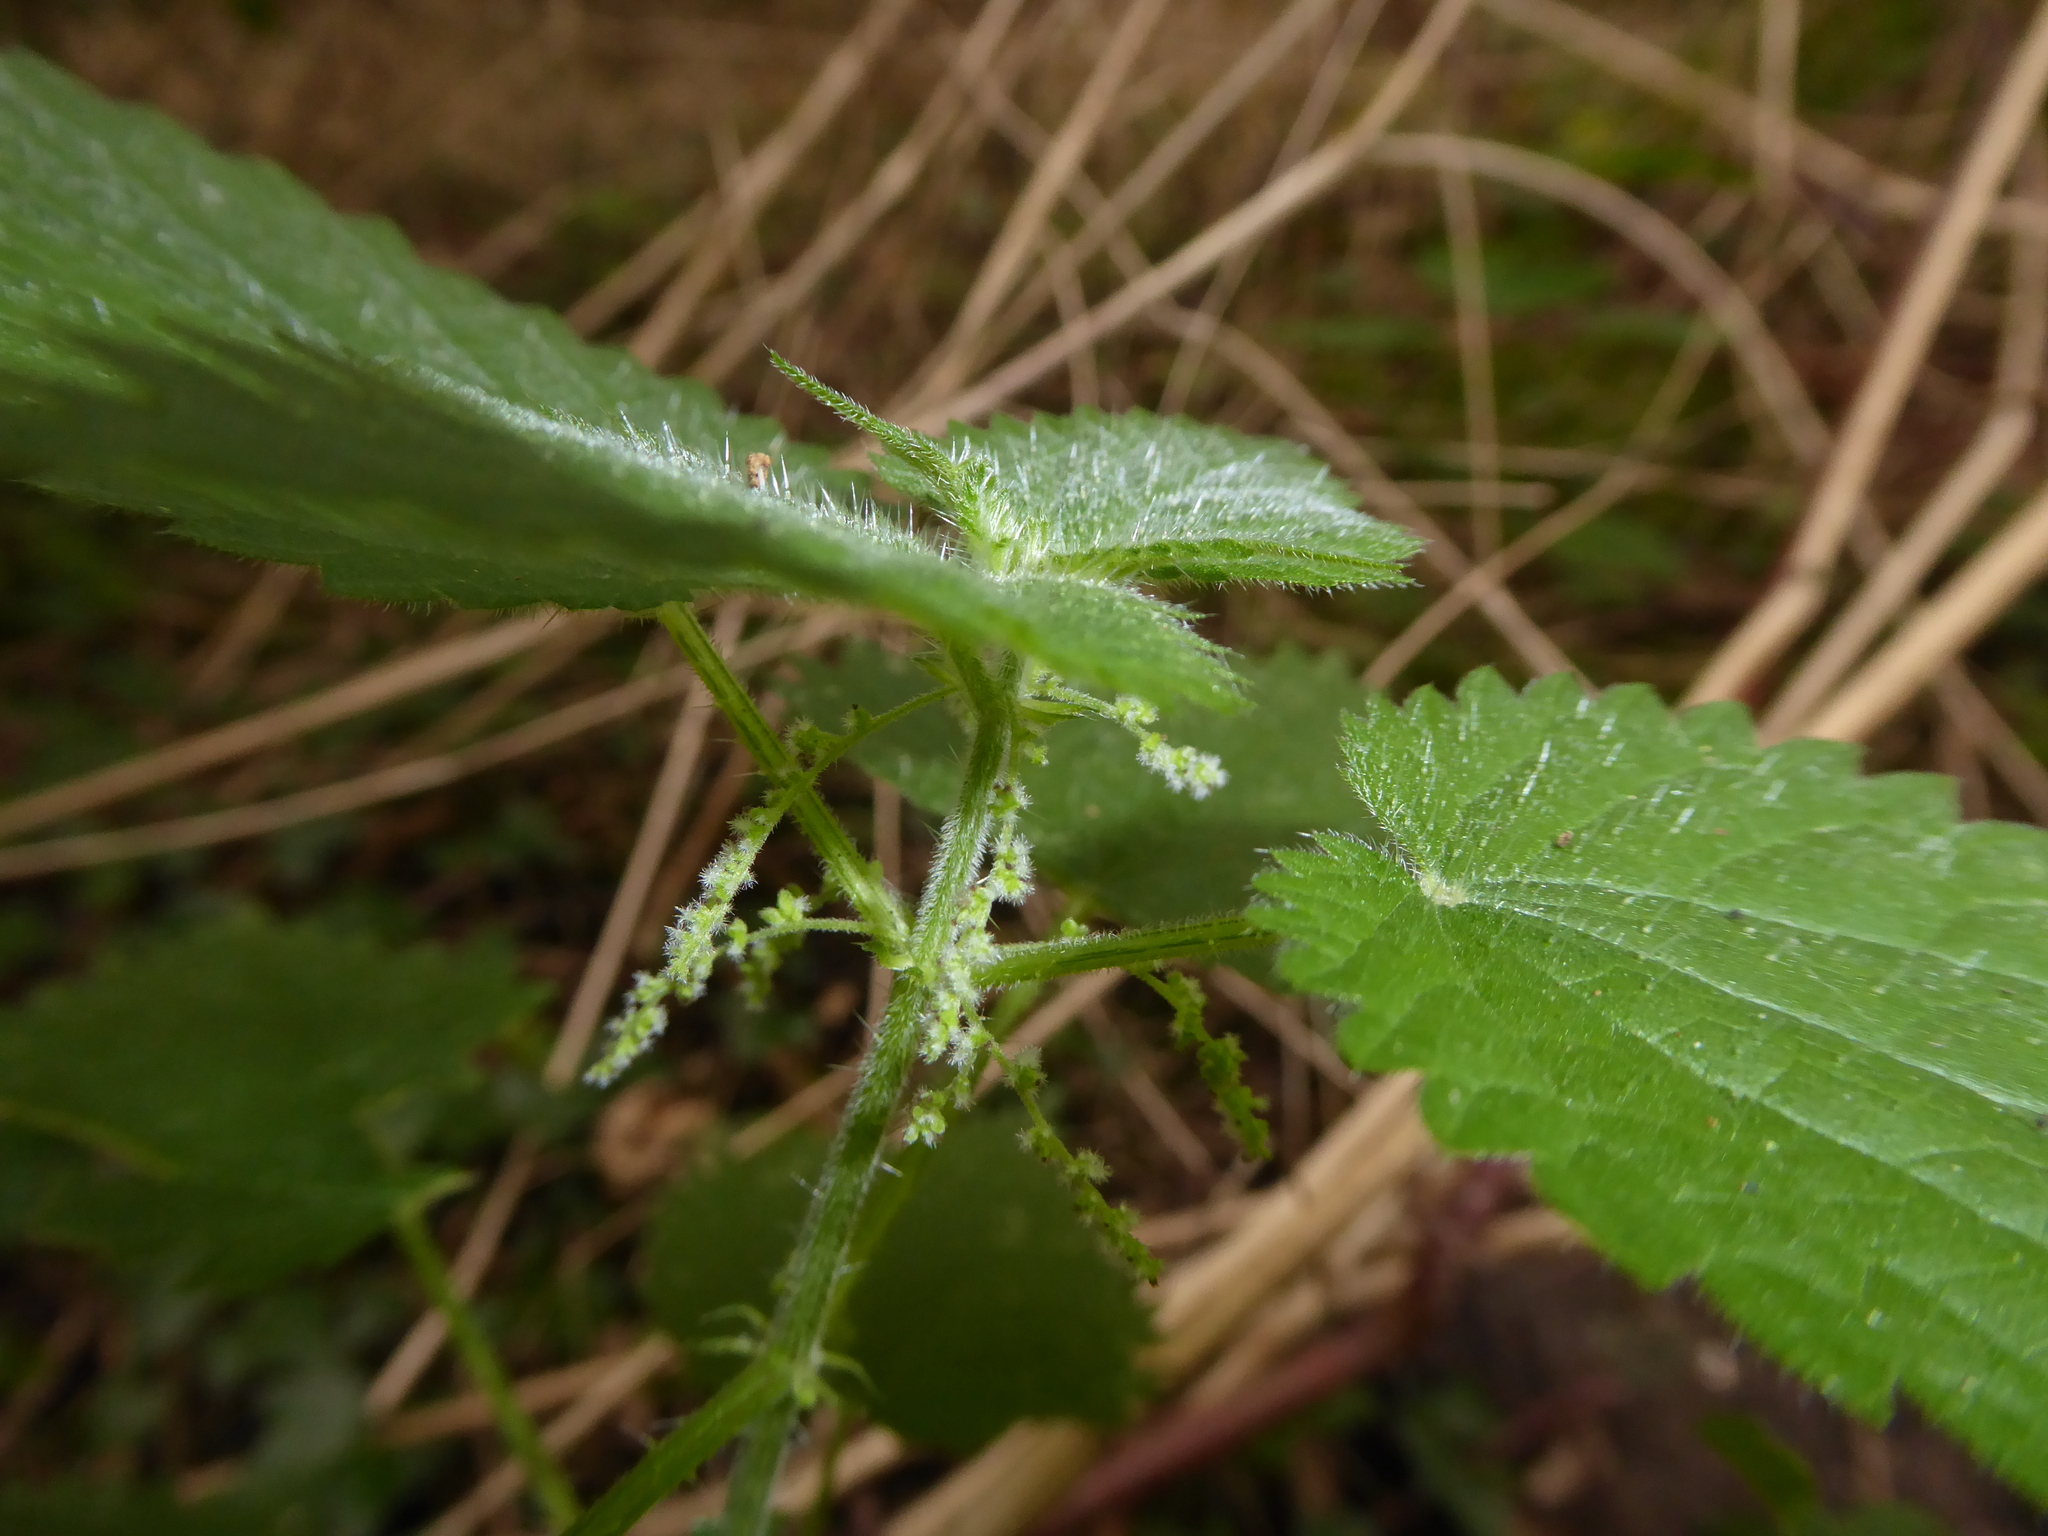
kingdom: Plantae
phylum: Tracheophyta
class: Magnoliopsida
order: Rosales
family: Urticaceae
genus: Urtica
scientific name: Urtica dioica
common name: Common nettle
